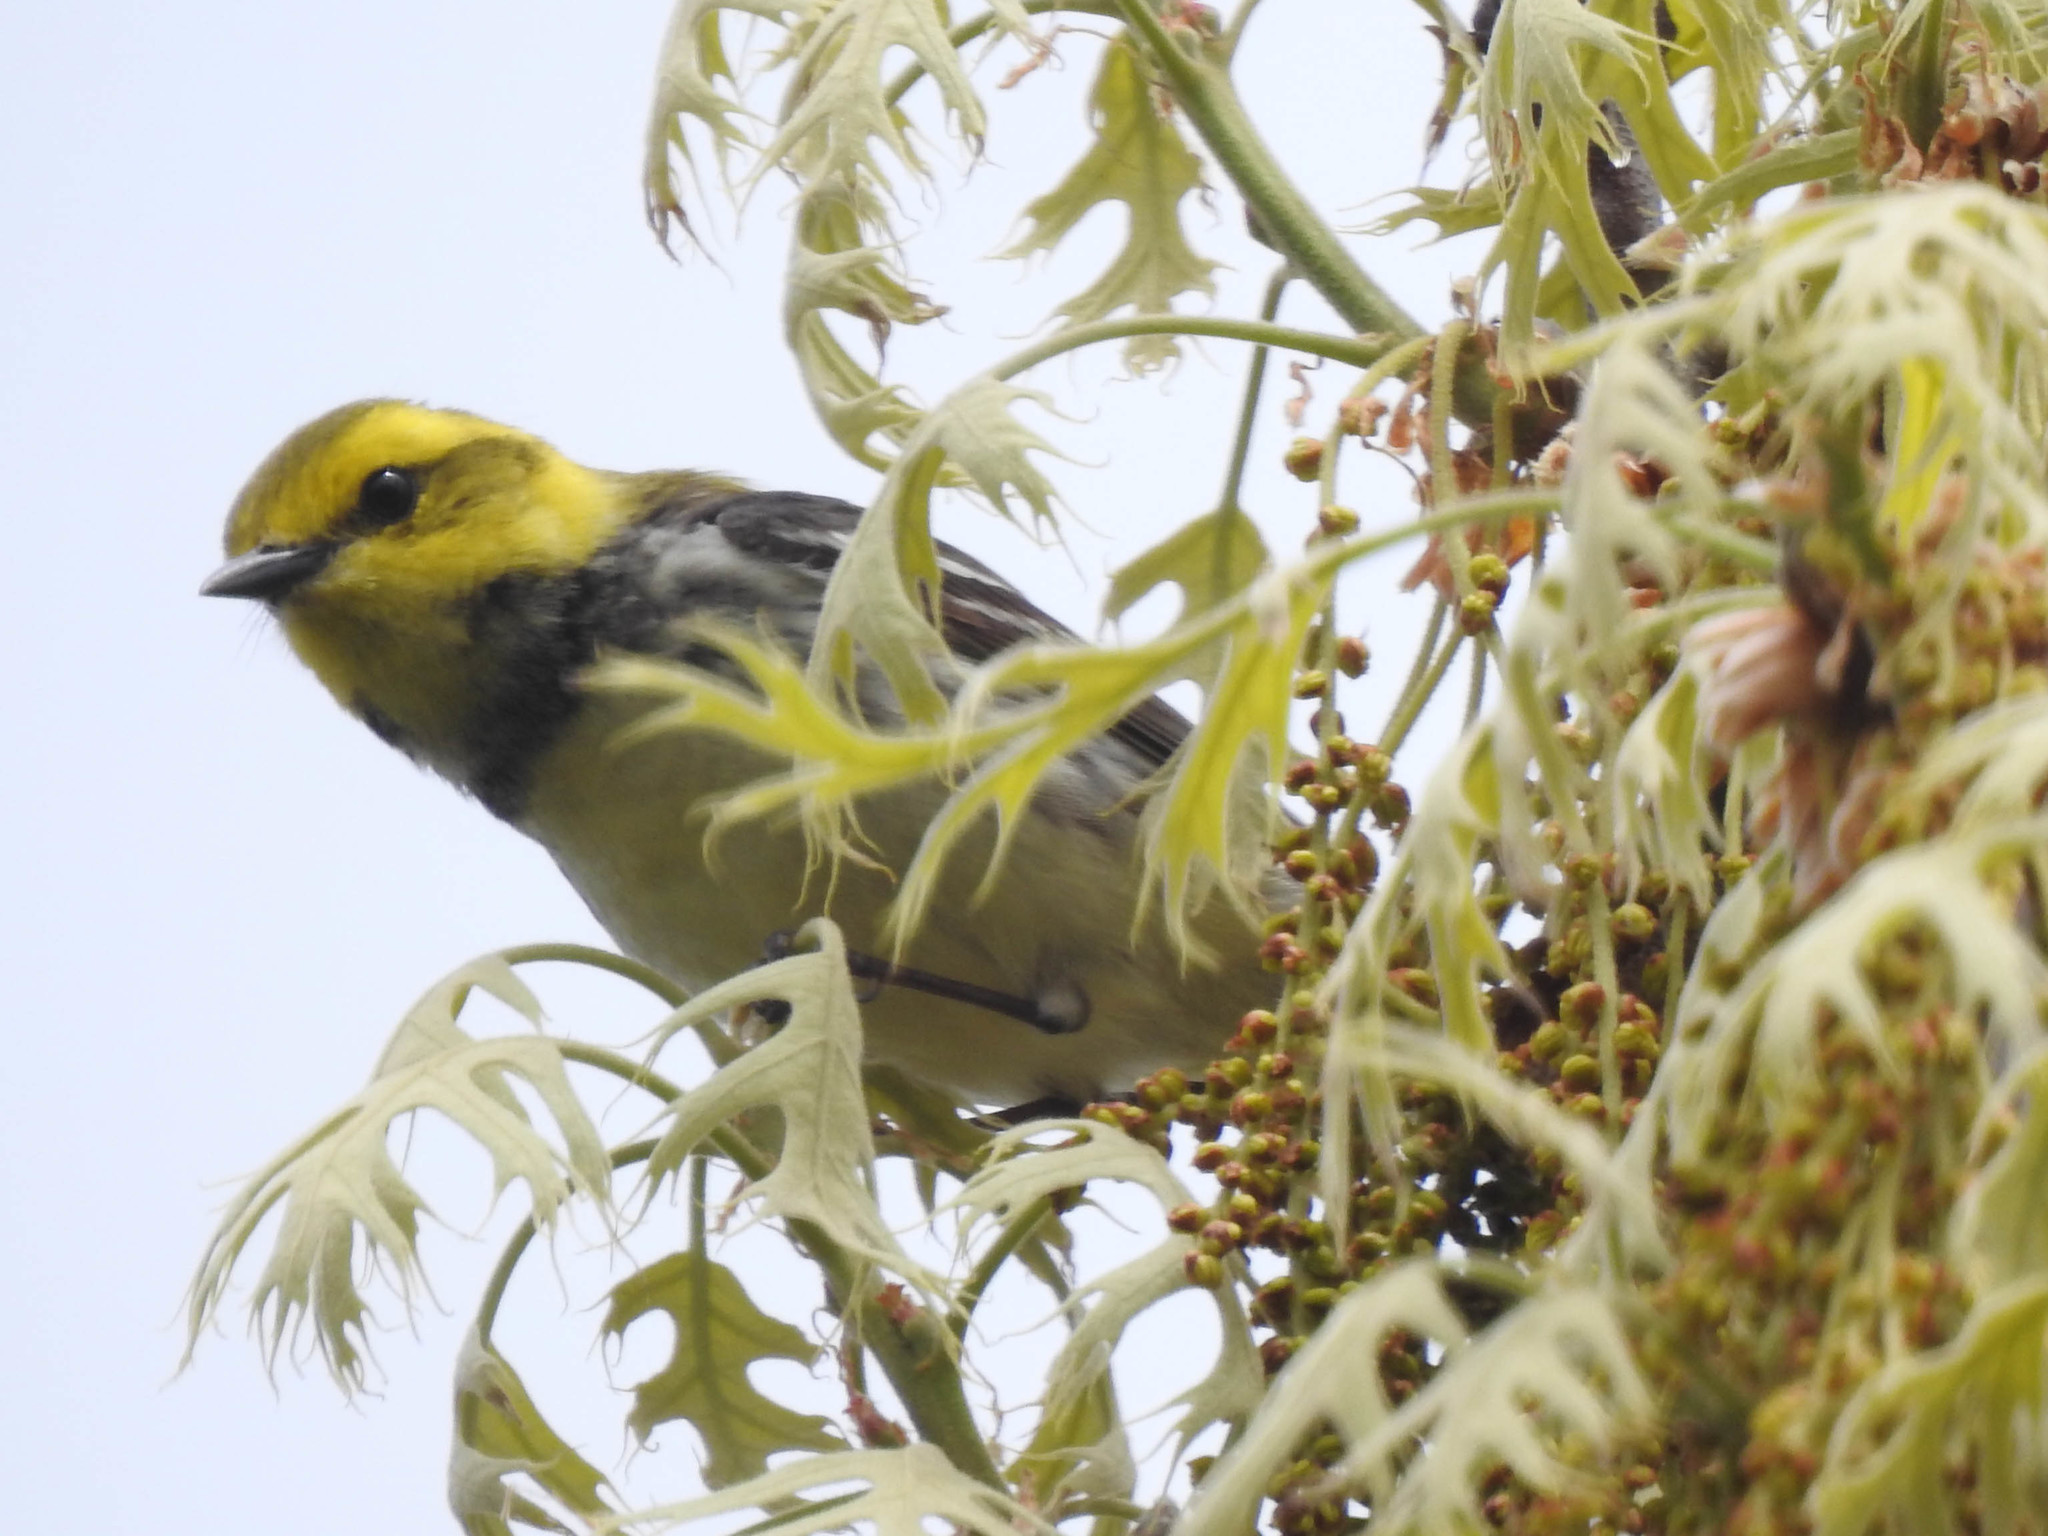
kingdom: Animalia
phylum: Chordata
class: Aves
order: Passeriformes
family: Parulidae
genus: Setophaga
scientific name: Setophaga virens
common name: Black-throated green warbler
